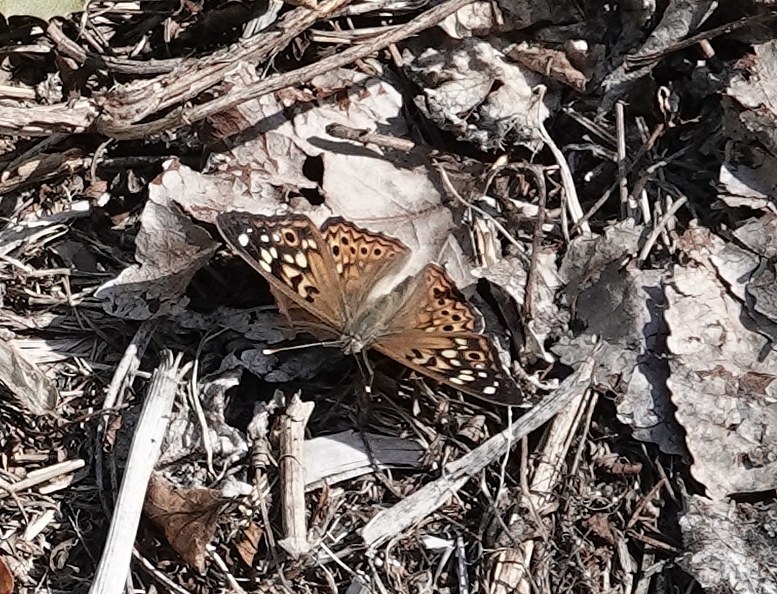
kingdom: Animalia
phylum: Arthropoda
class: Insecta
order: Lepidoptera
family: Nymphalidae
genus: Asterocampa
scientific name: Asterocampa celtis
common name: Hackberry emperor
